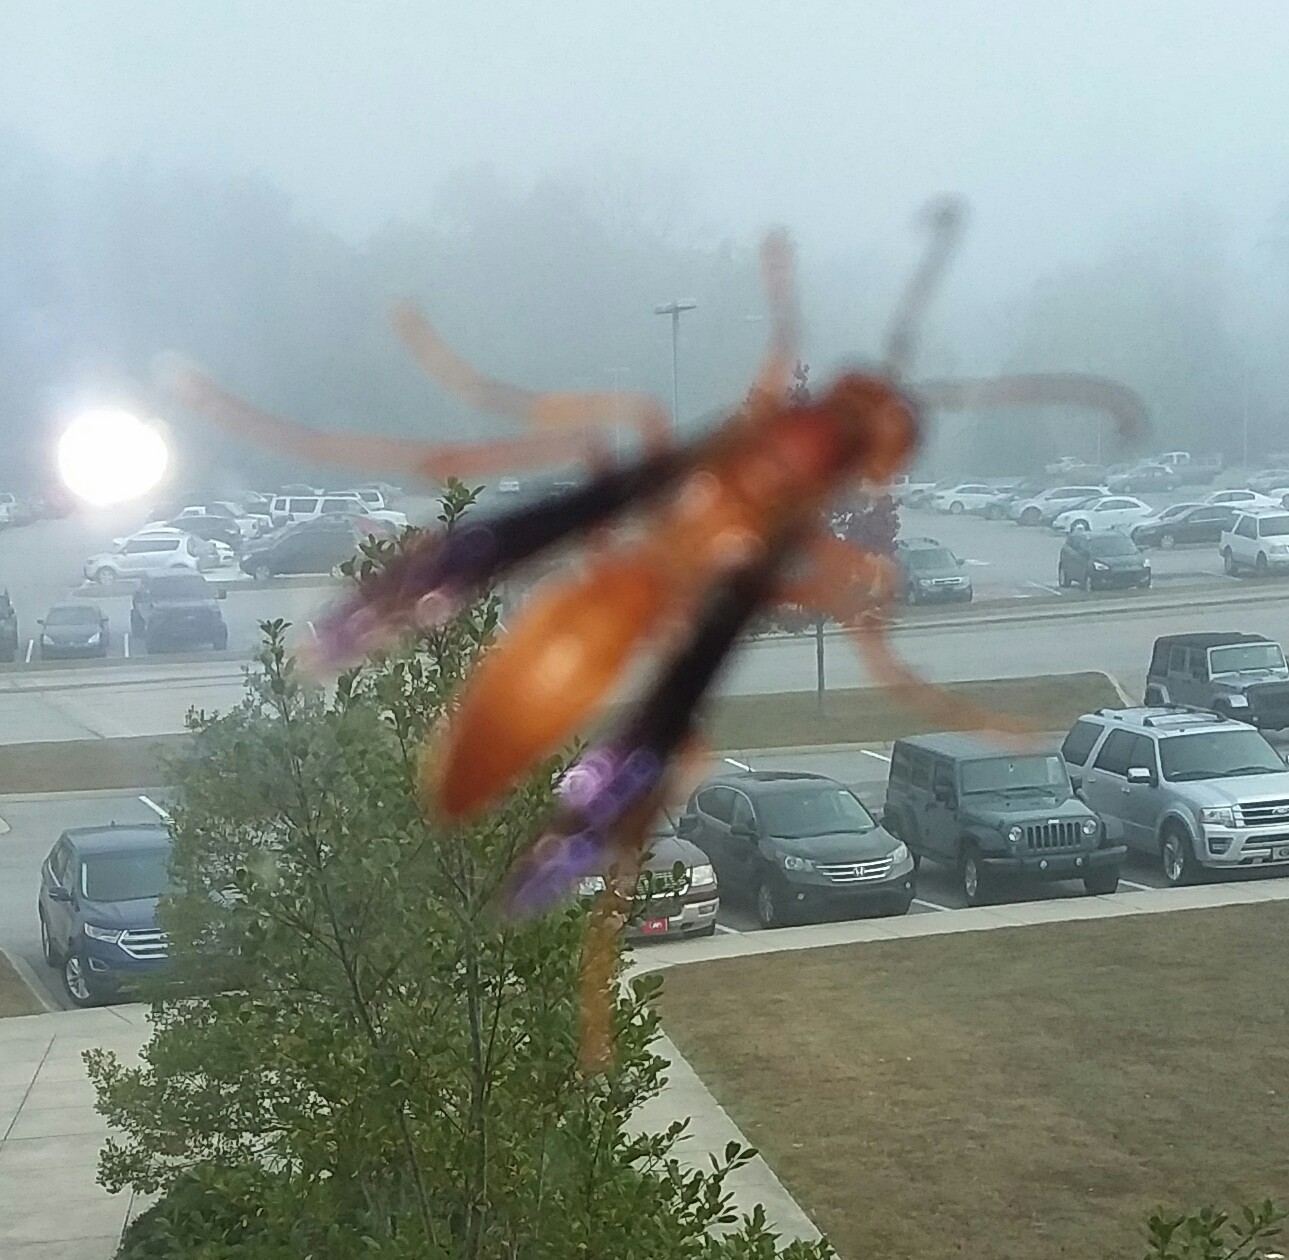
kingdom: Animalia
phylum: Arthropoda
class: Insecta
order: Hymenoptera
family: Vespidae
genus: Fuscopolistes
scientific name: Fuscopolistes
